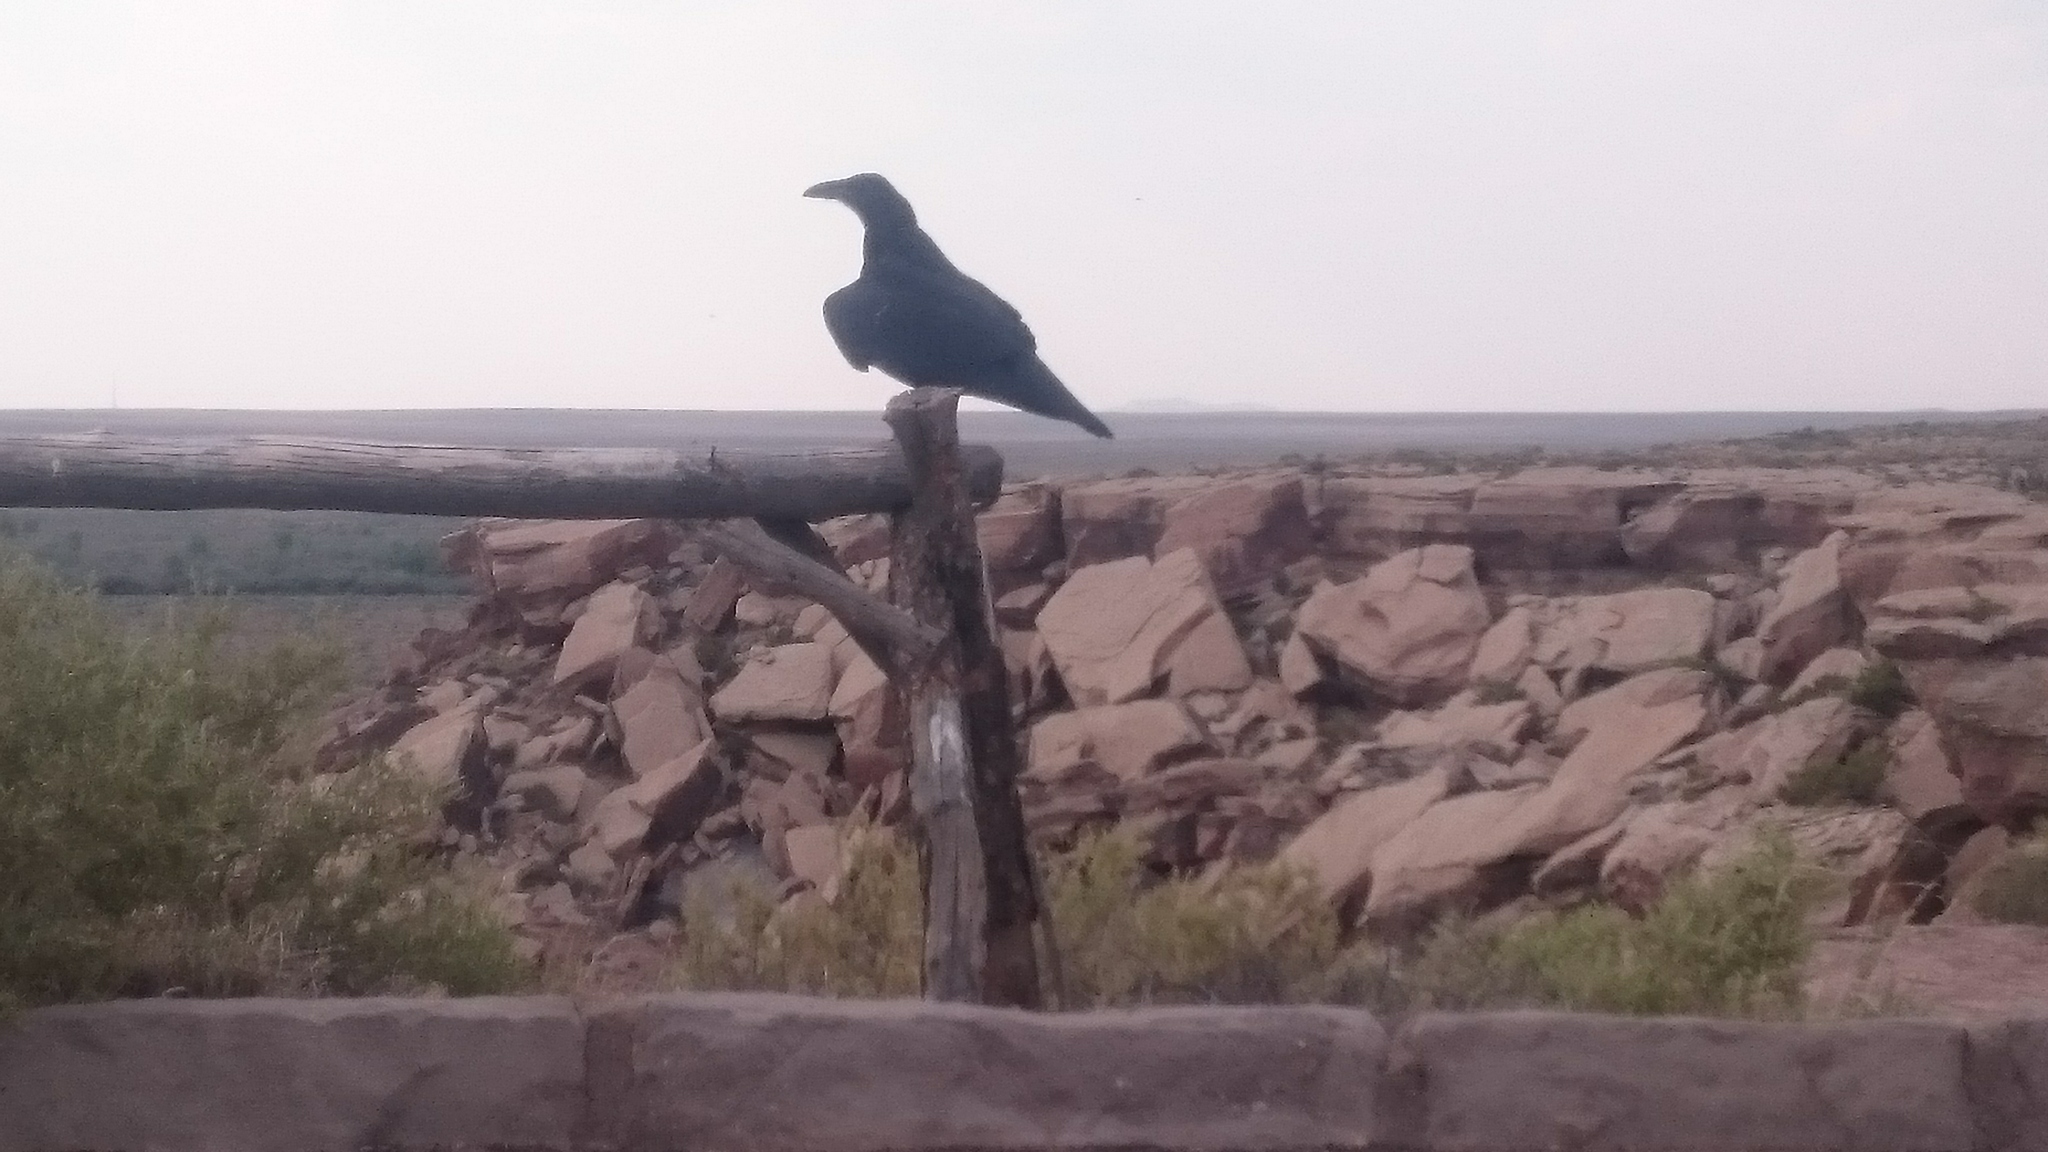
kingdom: Animalia
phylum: Chordata
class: Aves
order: Passeriformes
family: Corvidae
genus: Corvus
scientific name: Corvus corax
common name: Common raven
